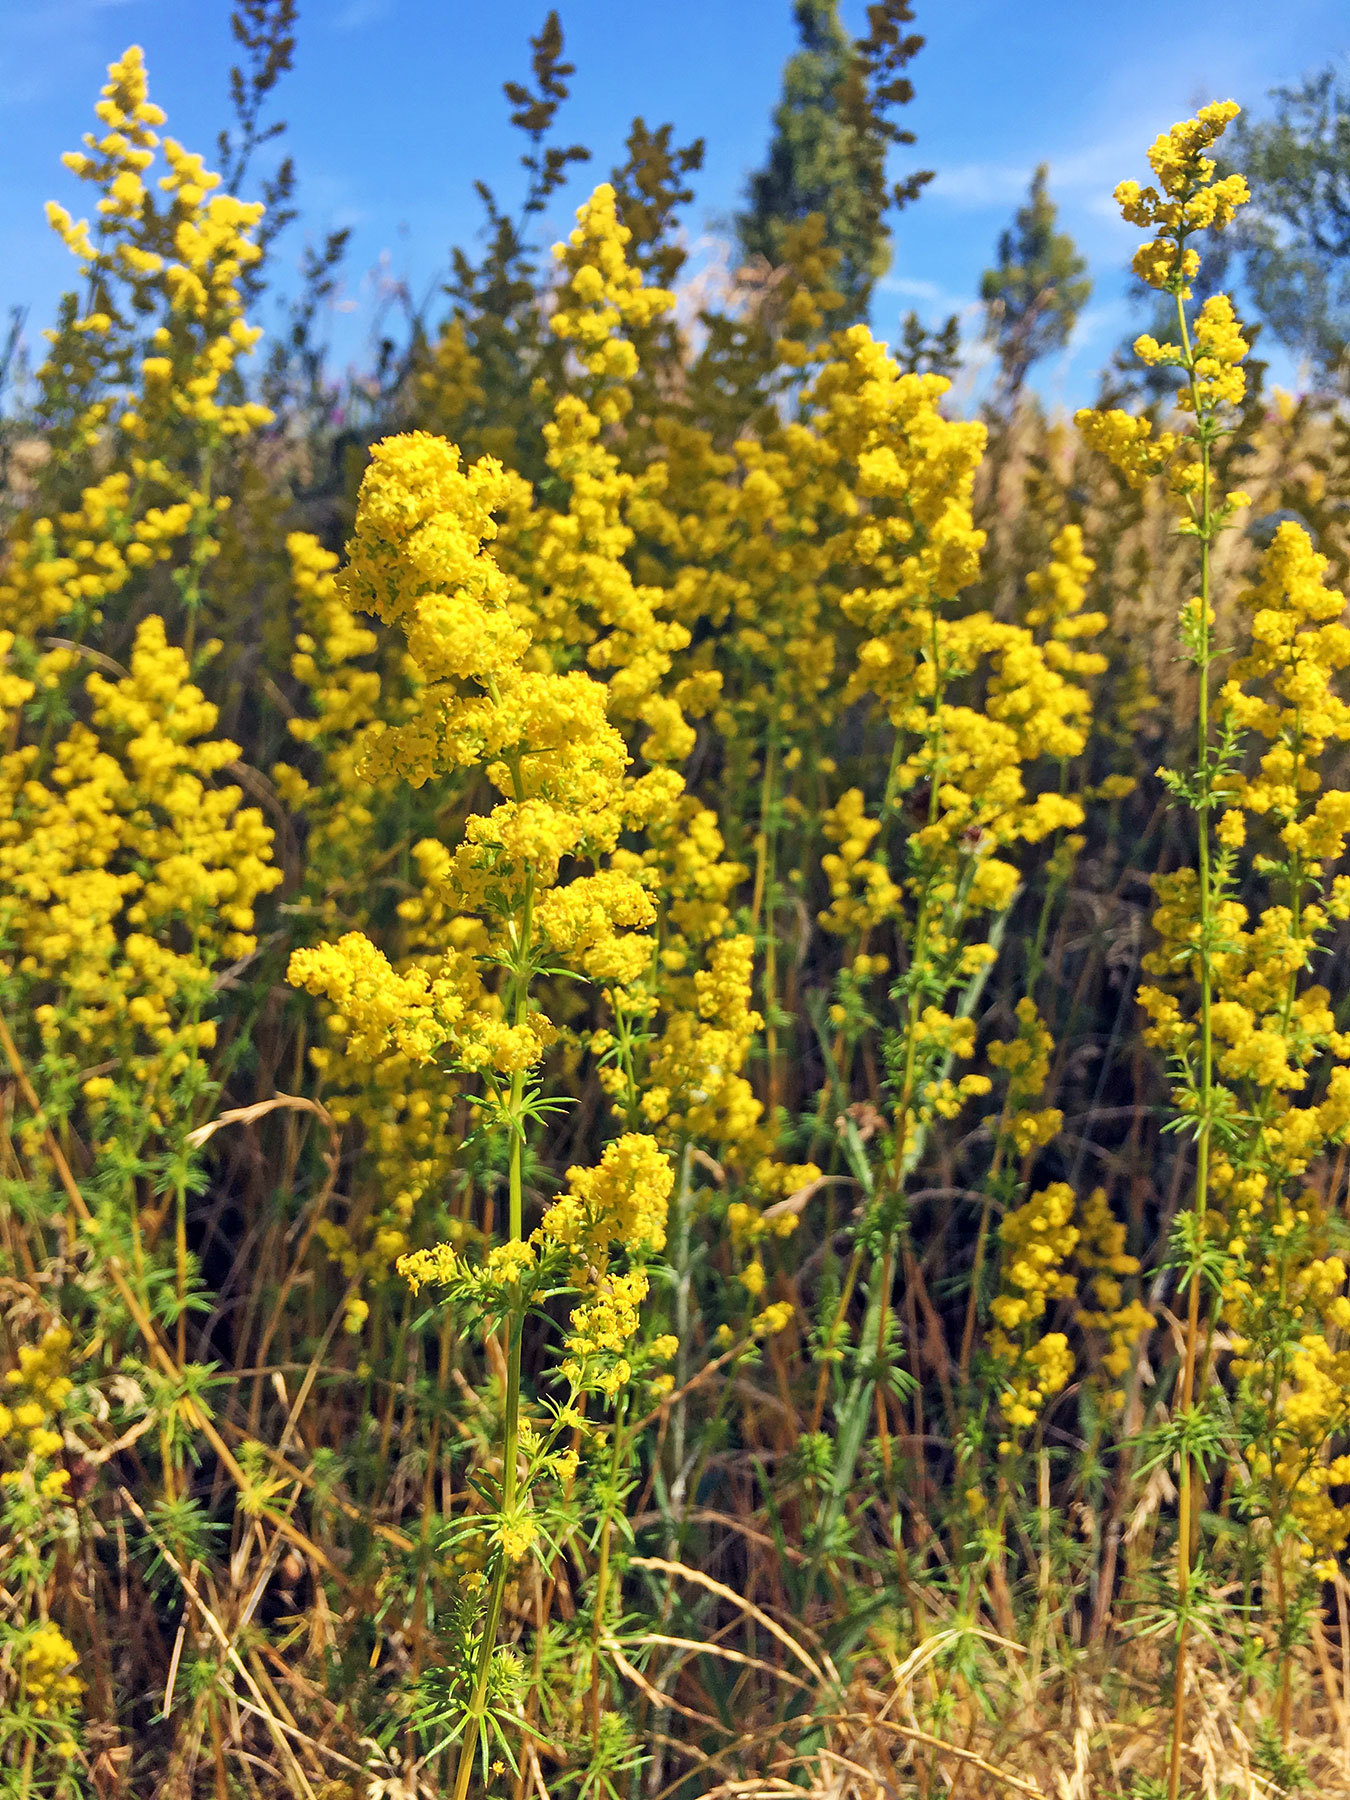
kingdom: Plantae
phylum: Tracheophyta
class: Magnoliopsida
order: Gentianales
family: Rubiaceae
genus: Galium
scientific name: Galium verum
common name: Lady's bedstraw
